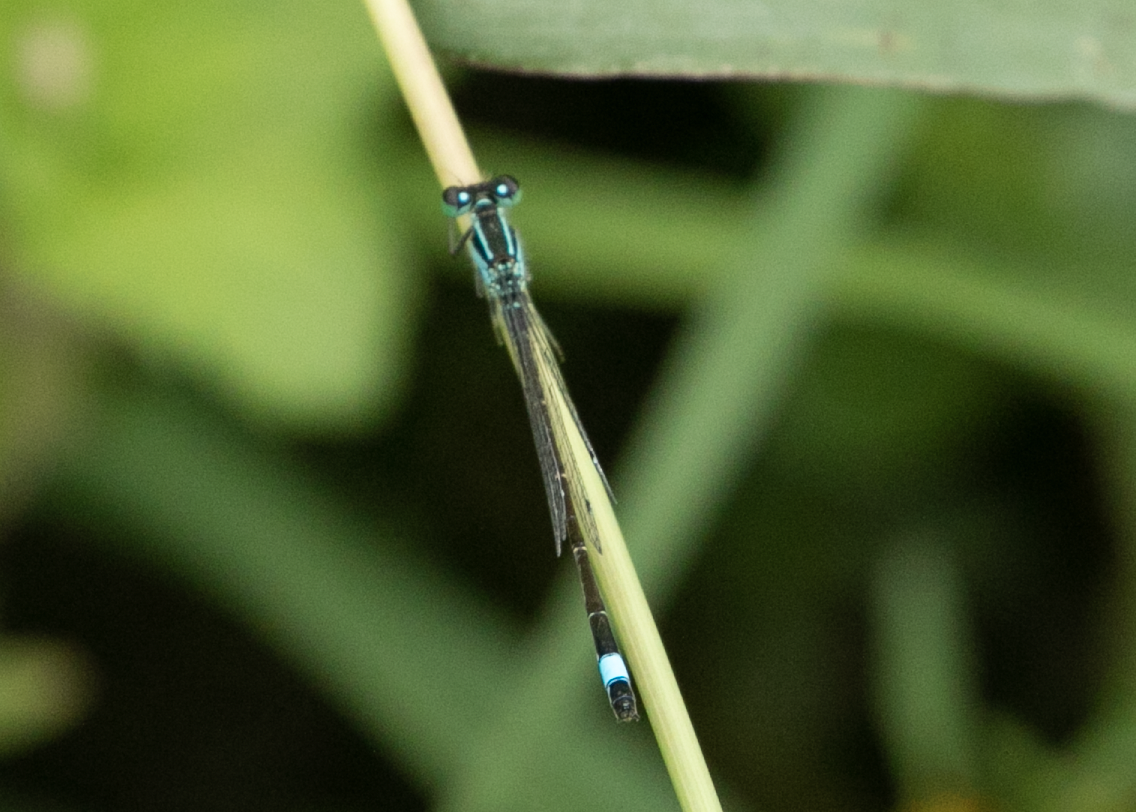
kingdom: Animalia
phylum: Arthropoda
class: Insecta
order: Odonata
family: Coenagrionidae
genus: Ischnura
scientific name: Ischnura elegans
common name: Blue-tailed damselfly
